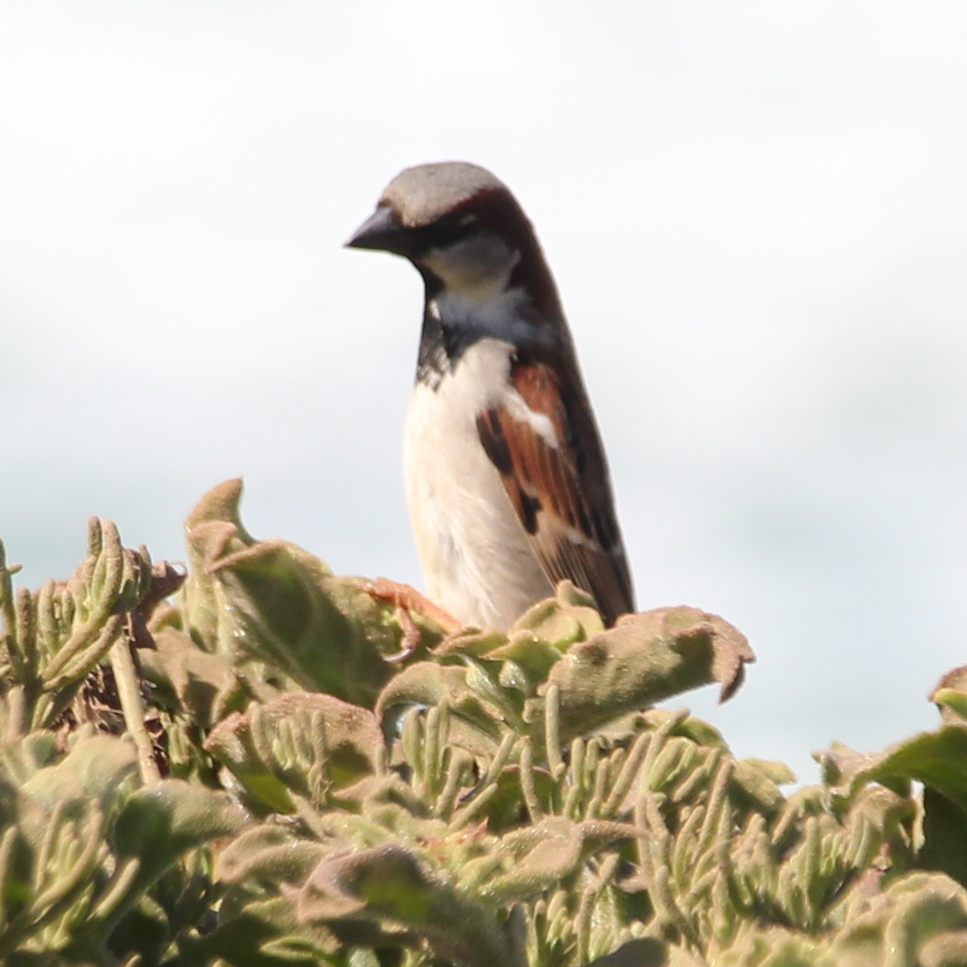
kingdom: Animalia
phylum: Chordata
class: Aves
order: Passeriformes
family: Passeridae
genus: Passer
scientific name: Passer domesticus
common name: House sparrow
